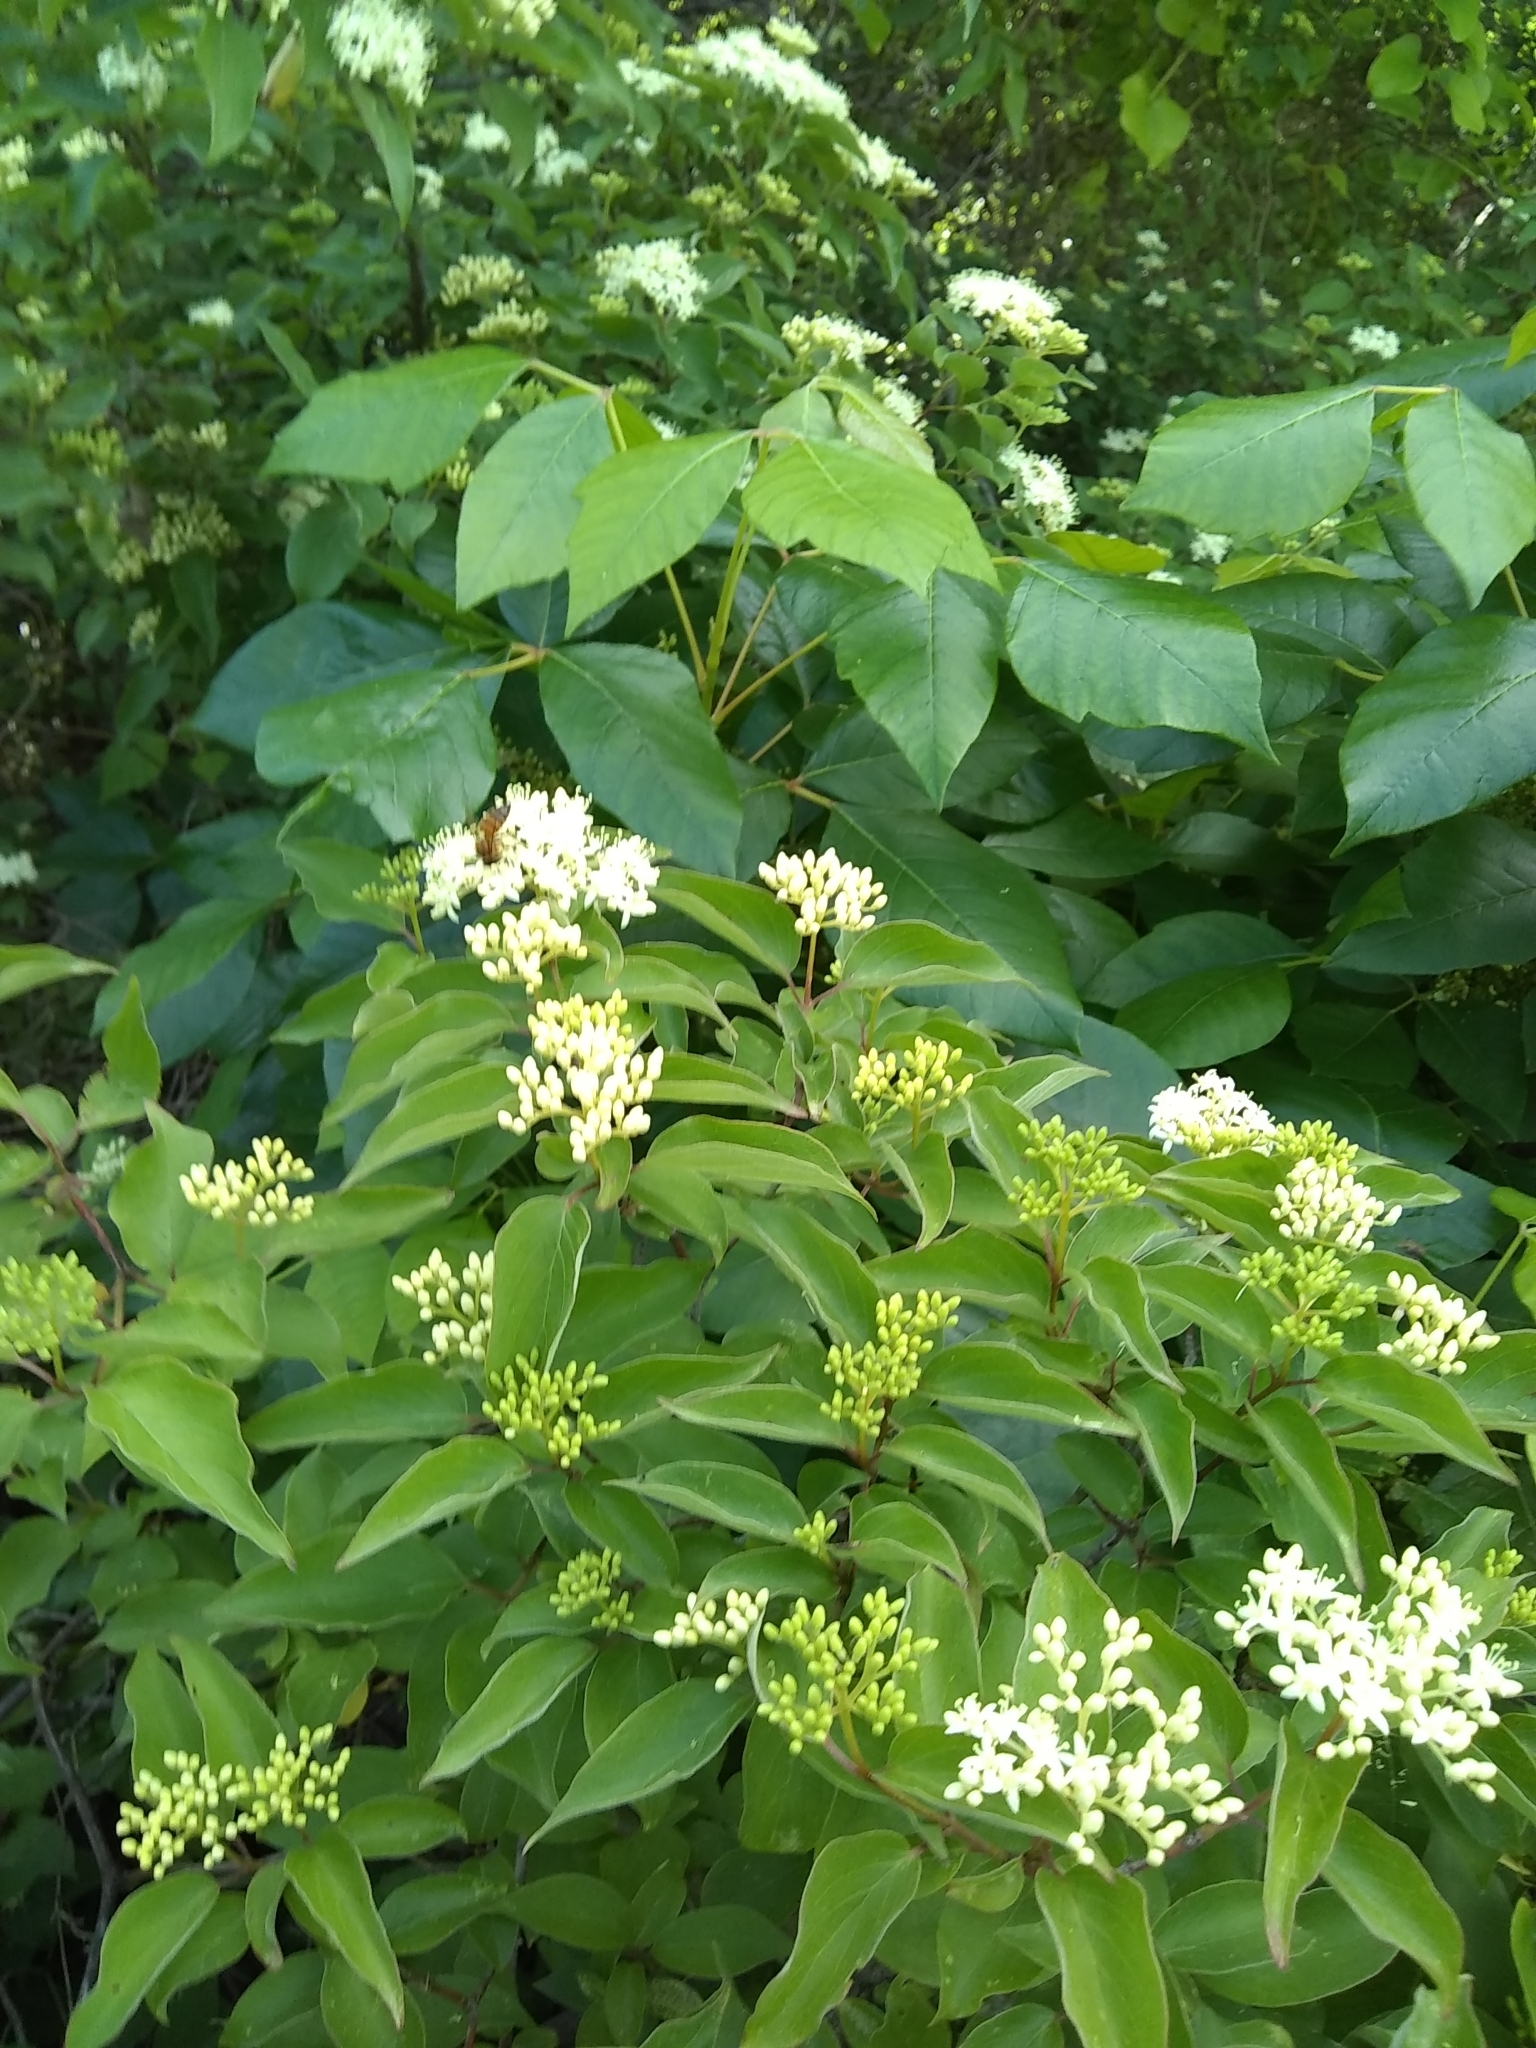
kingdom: Plantae
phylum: Tracheophyta
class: Magnoliopsida
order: Cornales
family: Cornaceae
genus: Cornus
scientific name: Cornus drummondii
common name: Rough-leaf dogwood
